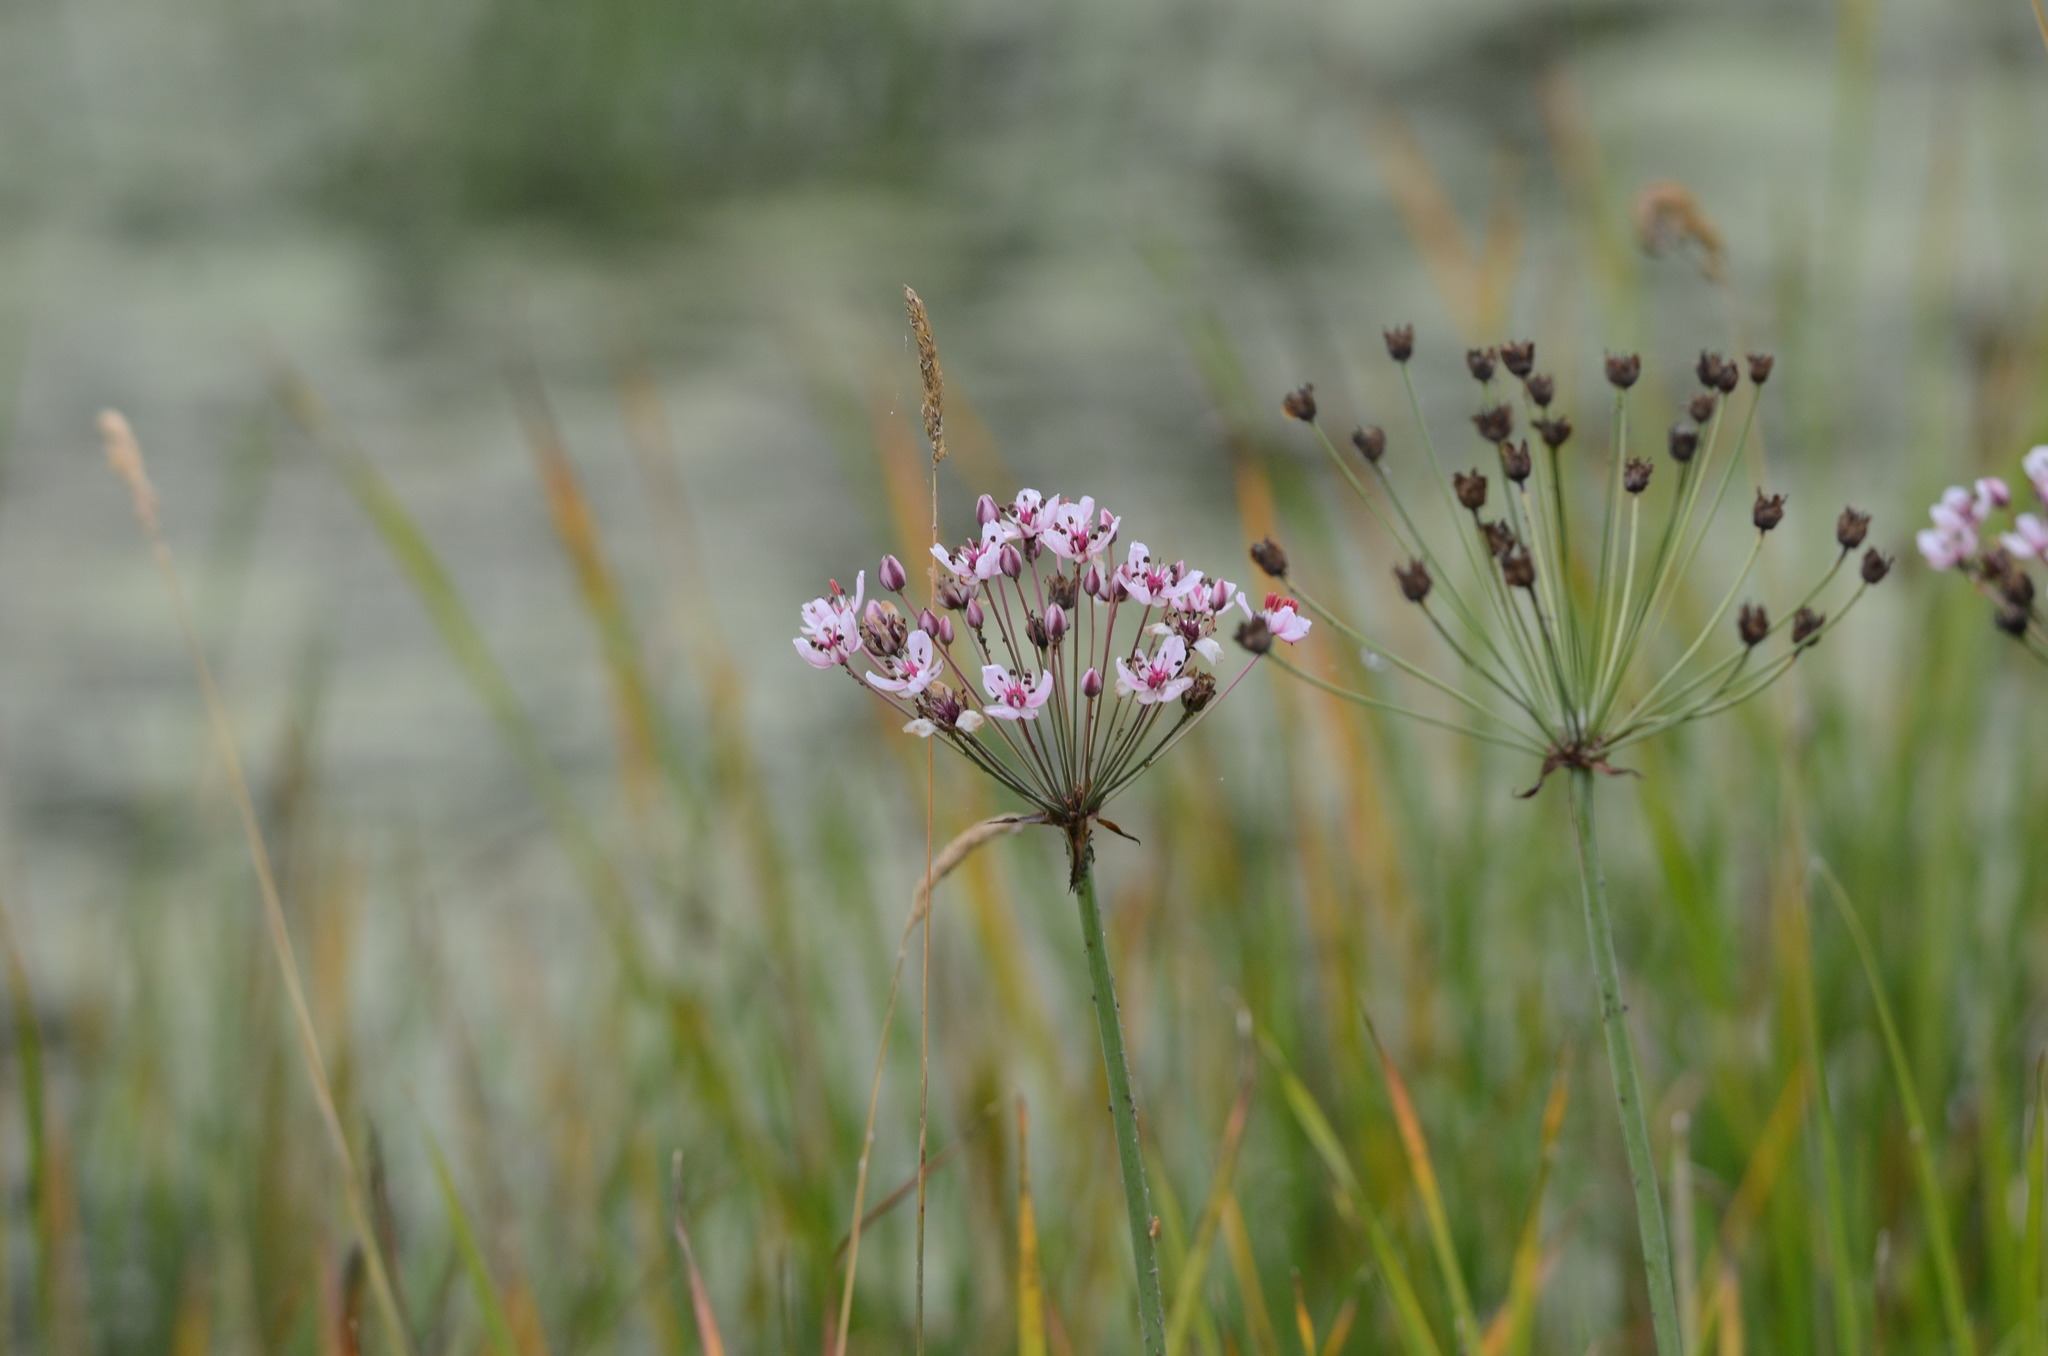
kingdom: Plantae
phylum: Tracheophyta
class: Liliopsida
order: Alismatales
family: Butomaceae
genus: Butomus
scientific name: Butomus umbellatus
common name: Flowering-rush
